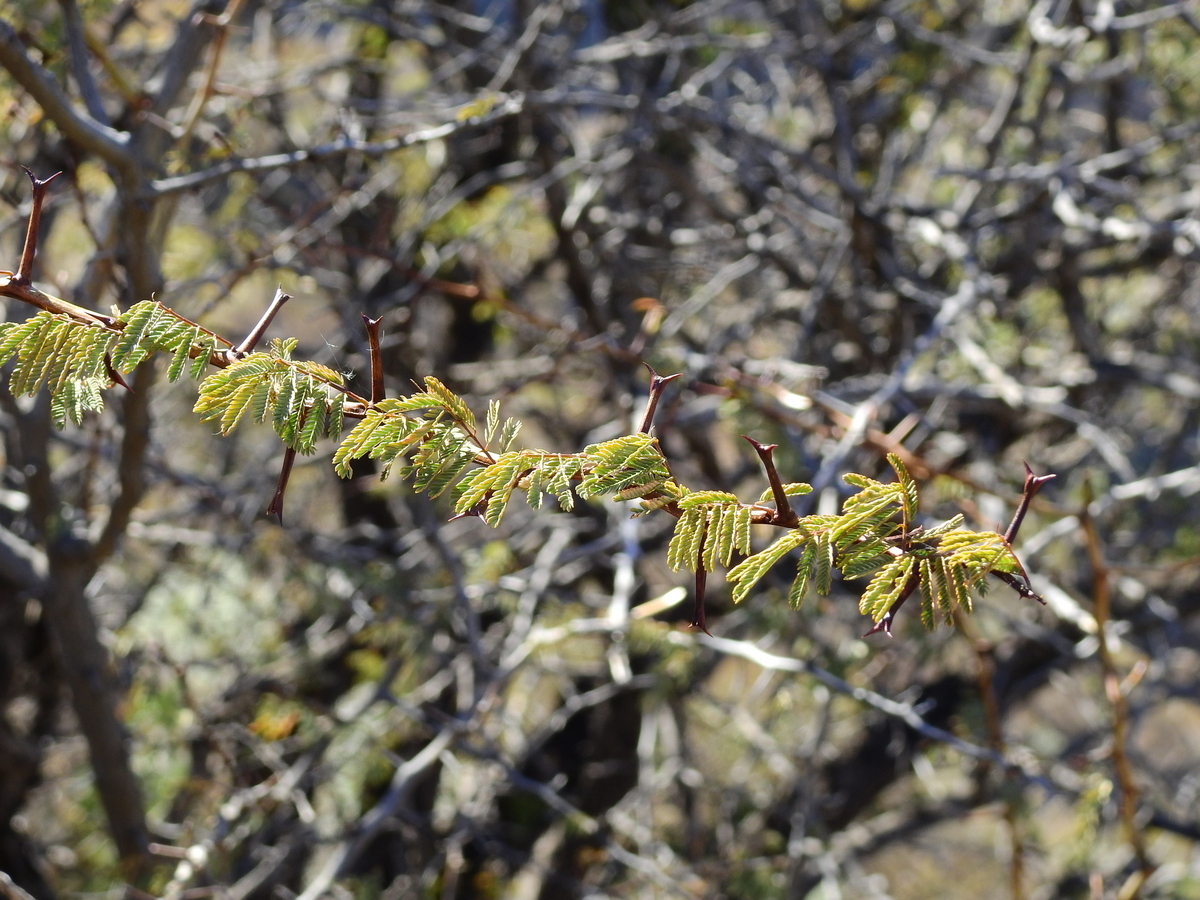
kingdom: Plantae
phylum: Tracheophyta
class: Magnoliopsida
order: Fabales
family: Fabaceae
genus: Senegalia
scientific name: Senegalia gilliesii
